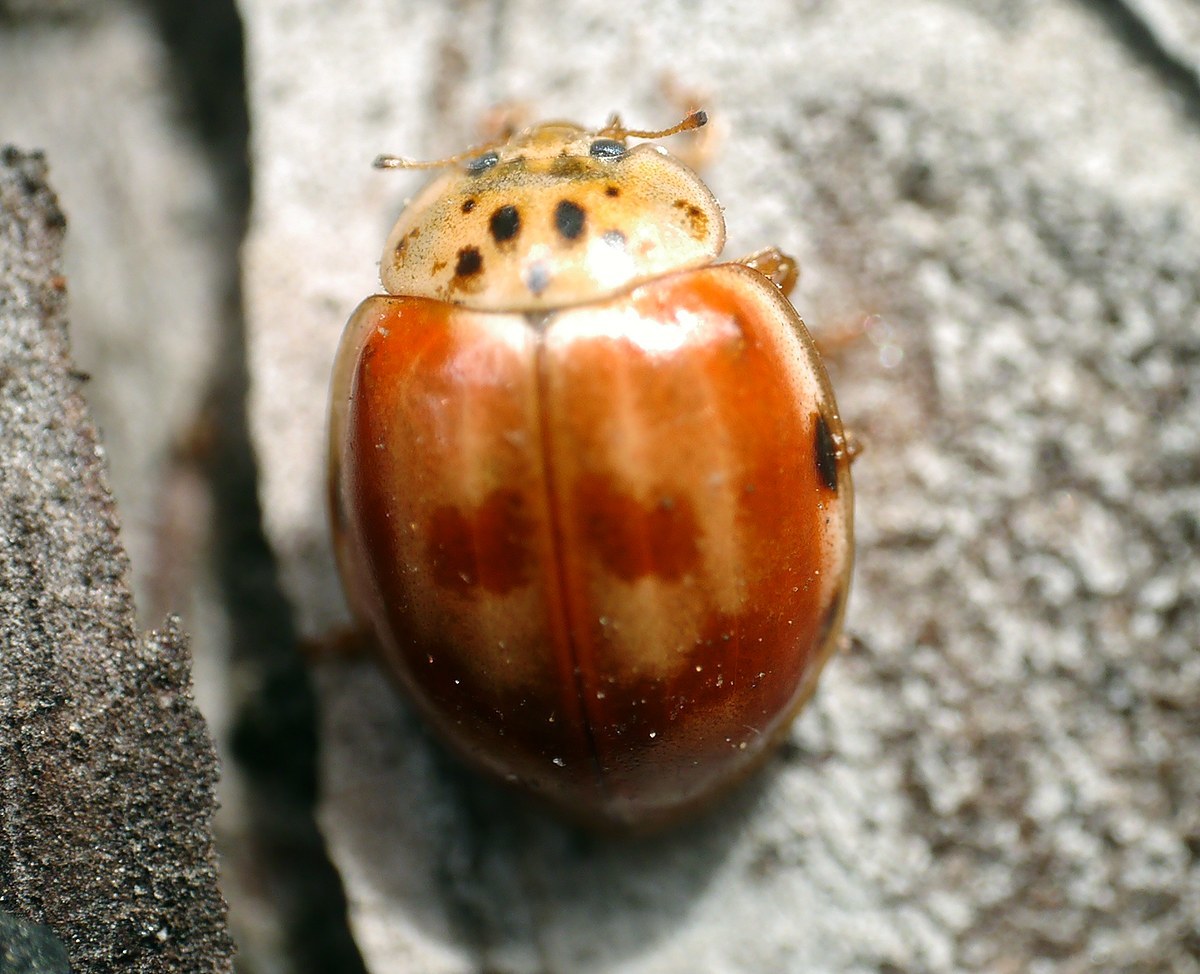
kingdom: Animalia
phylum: Arthropoda
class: Insecta
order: Coleoptera
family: Coccinellidae
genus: Harmonia
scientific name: Harmonia quadripunctata
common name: Cream-streaked ladybird
